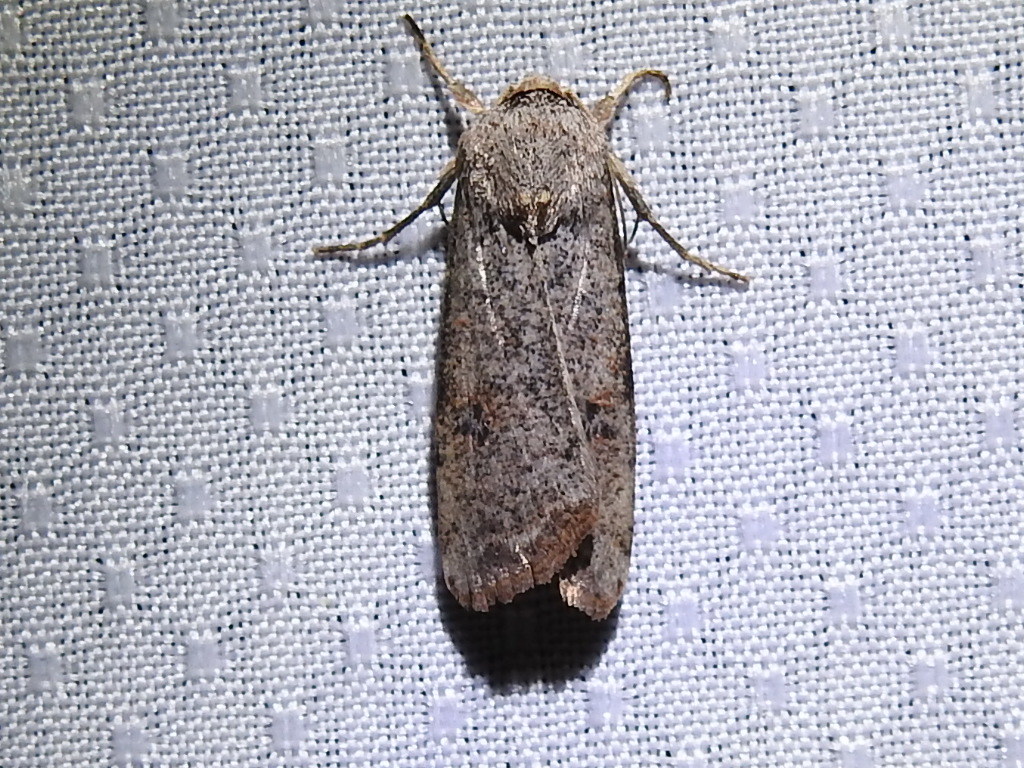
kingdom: Animalia
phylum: Arthropoda
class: Insecta
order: Lepidoptera
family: Noctuidae
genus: Anicla
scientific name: Anicla infecta
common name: Green cutworm
